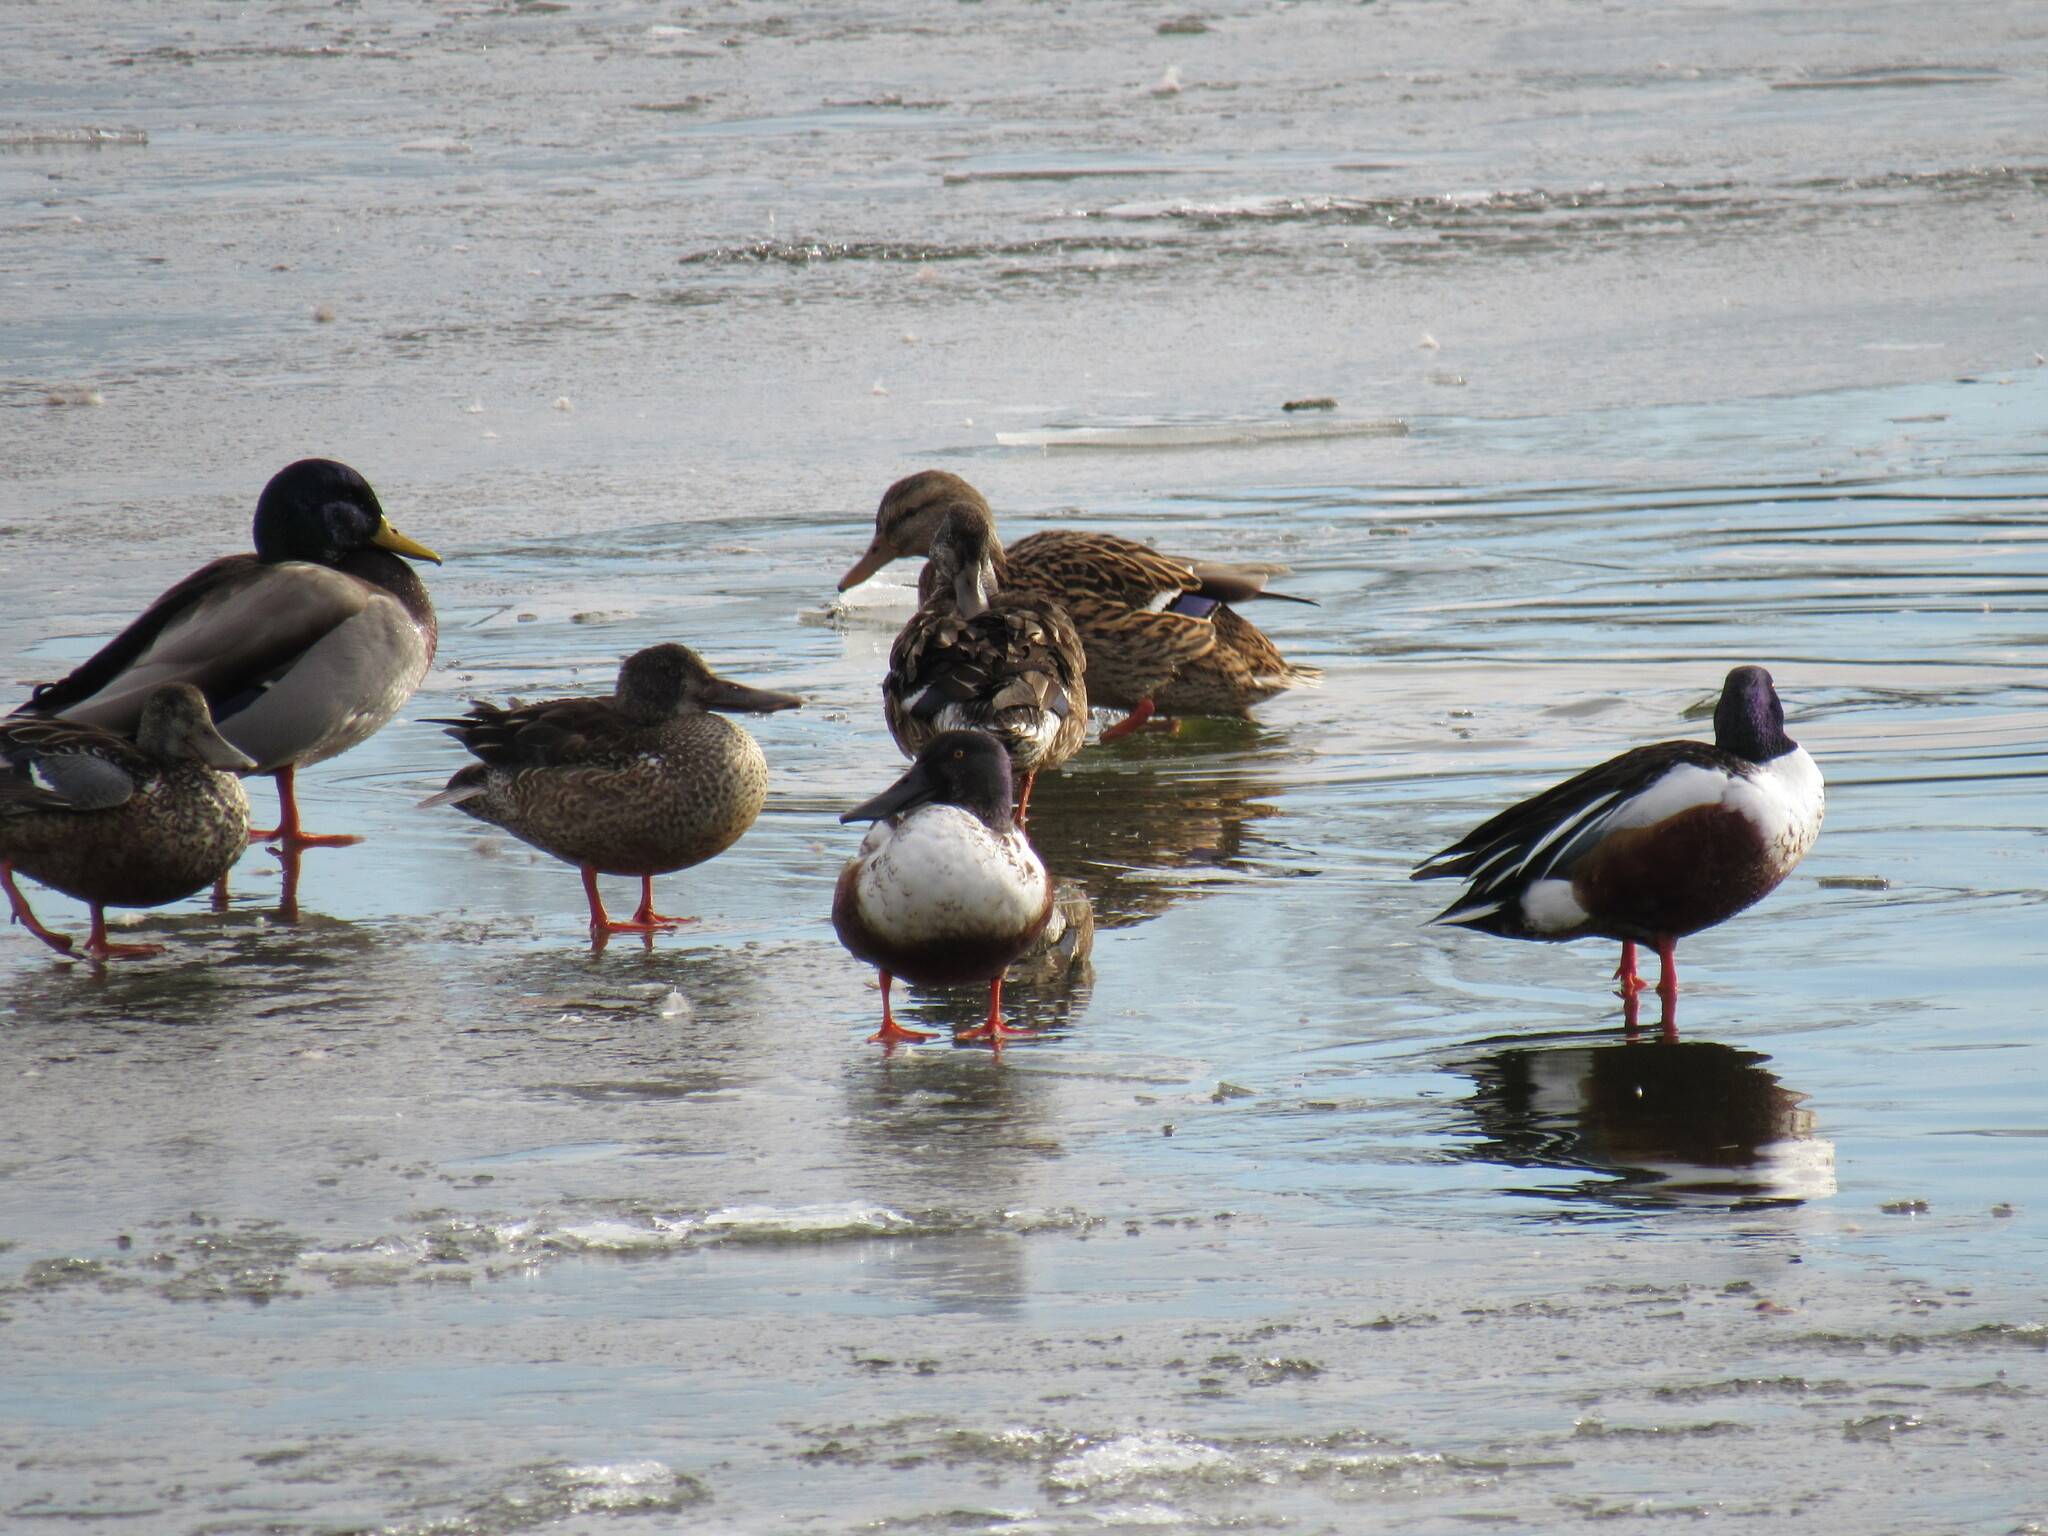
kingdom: Animalia
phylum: Chordata
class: Aves
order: Anseriformes
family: Anatidae
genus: Spatula
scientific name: Spatula clypeata
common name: Northern shoveler
